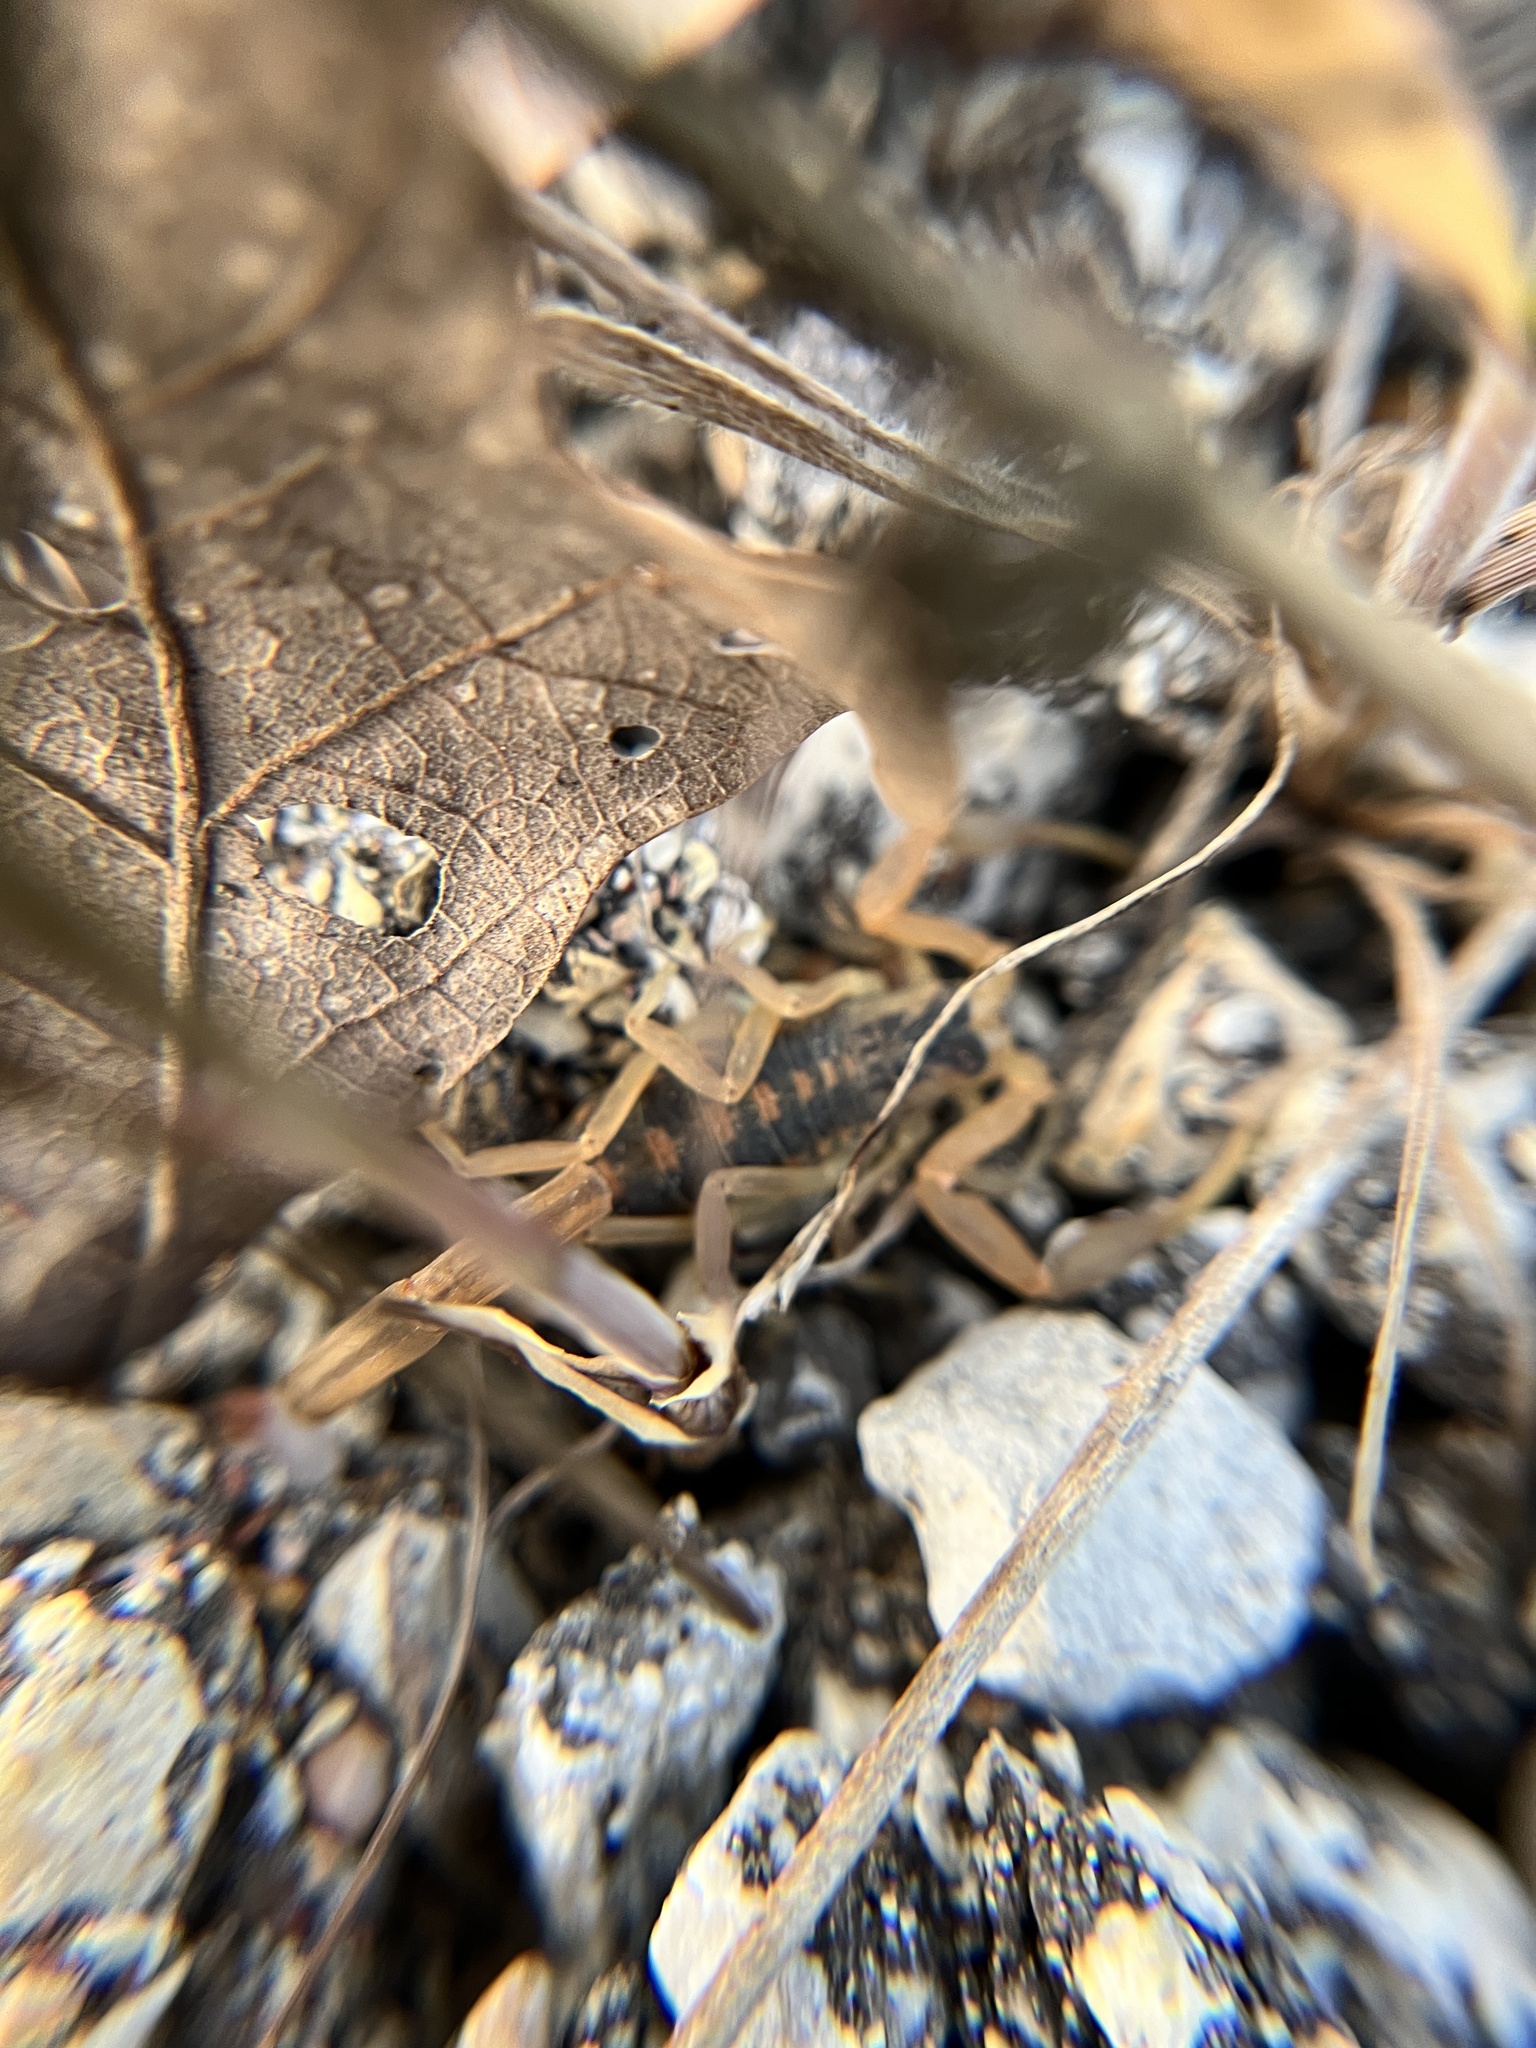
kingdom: Animalia
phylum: Arthropoda
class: Arachnida
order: Scorpiones
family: Buthidae
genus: Centruroides
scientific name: Centruroides vittatus
